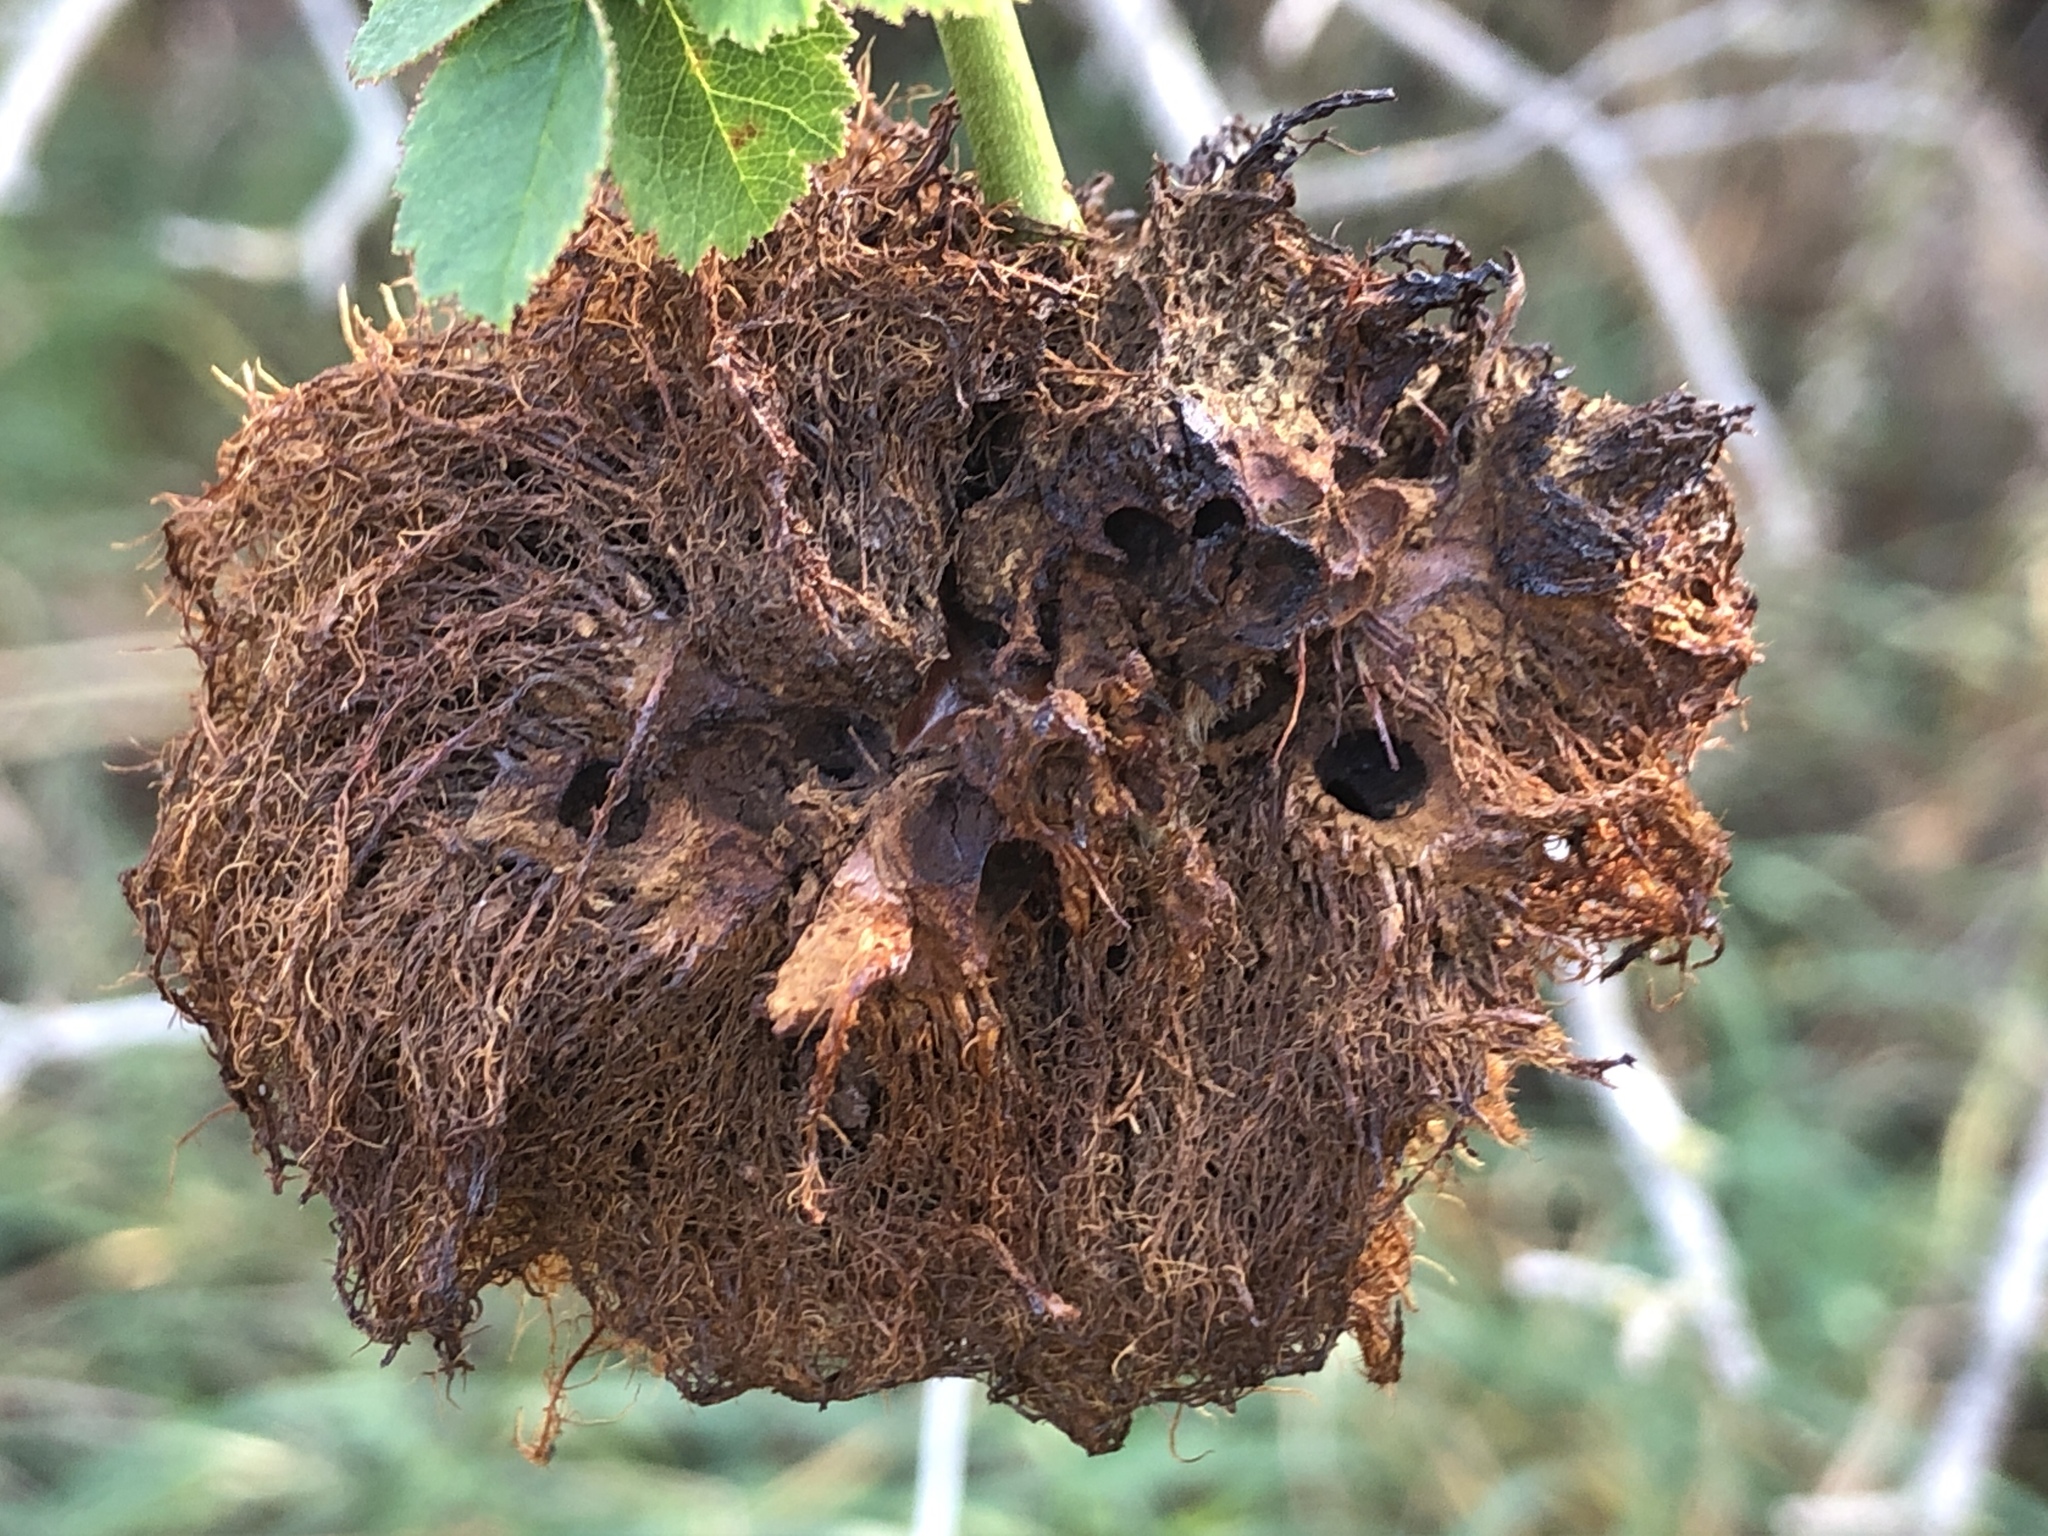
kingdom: Animalia
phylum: Arthropoda
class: Insecta
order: Hymenoptera
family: Cynipidae
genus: Diplolepis
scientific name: Diplolepis rosae
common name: Bedeguar gall
